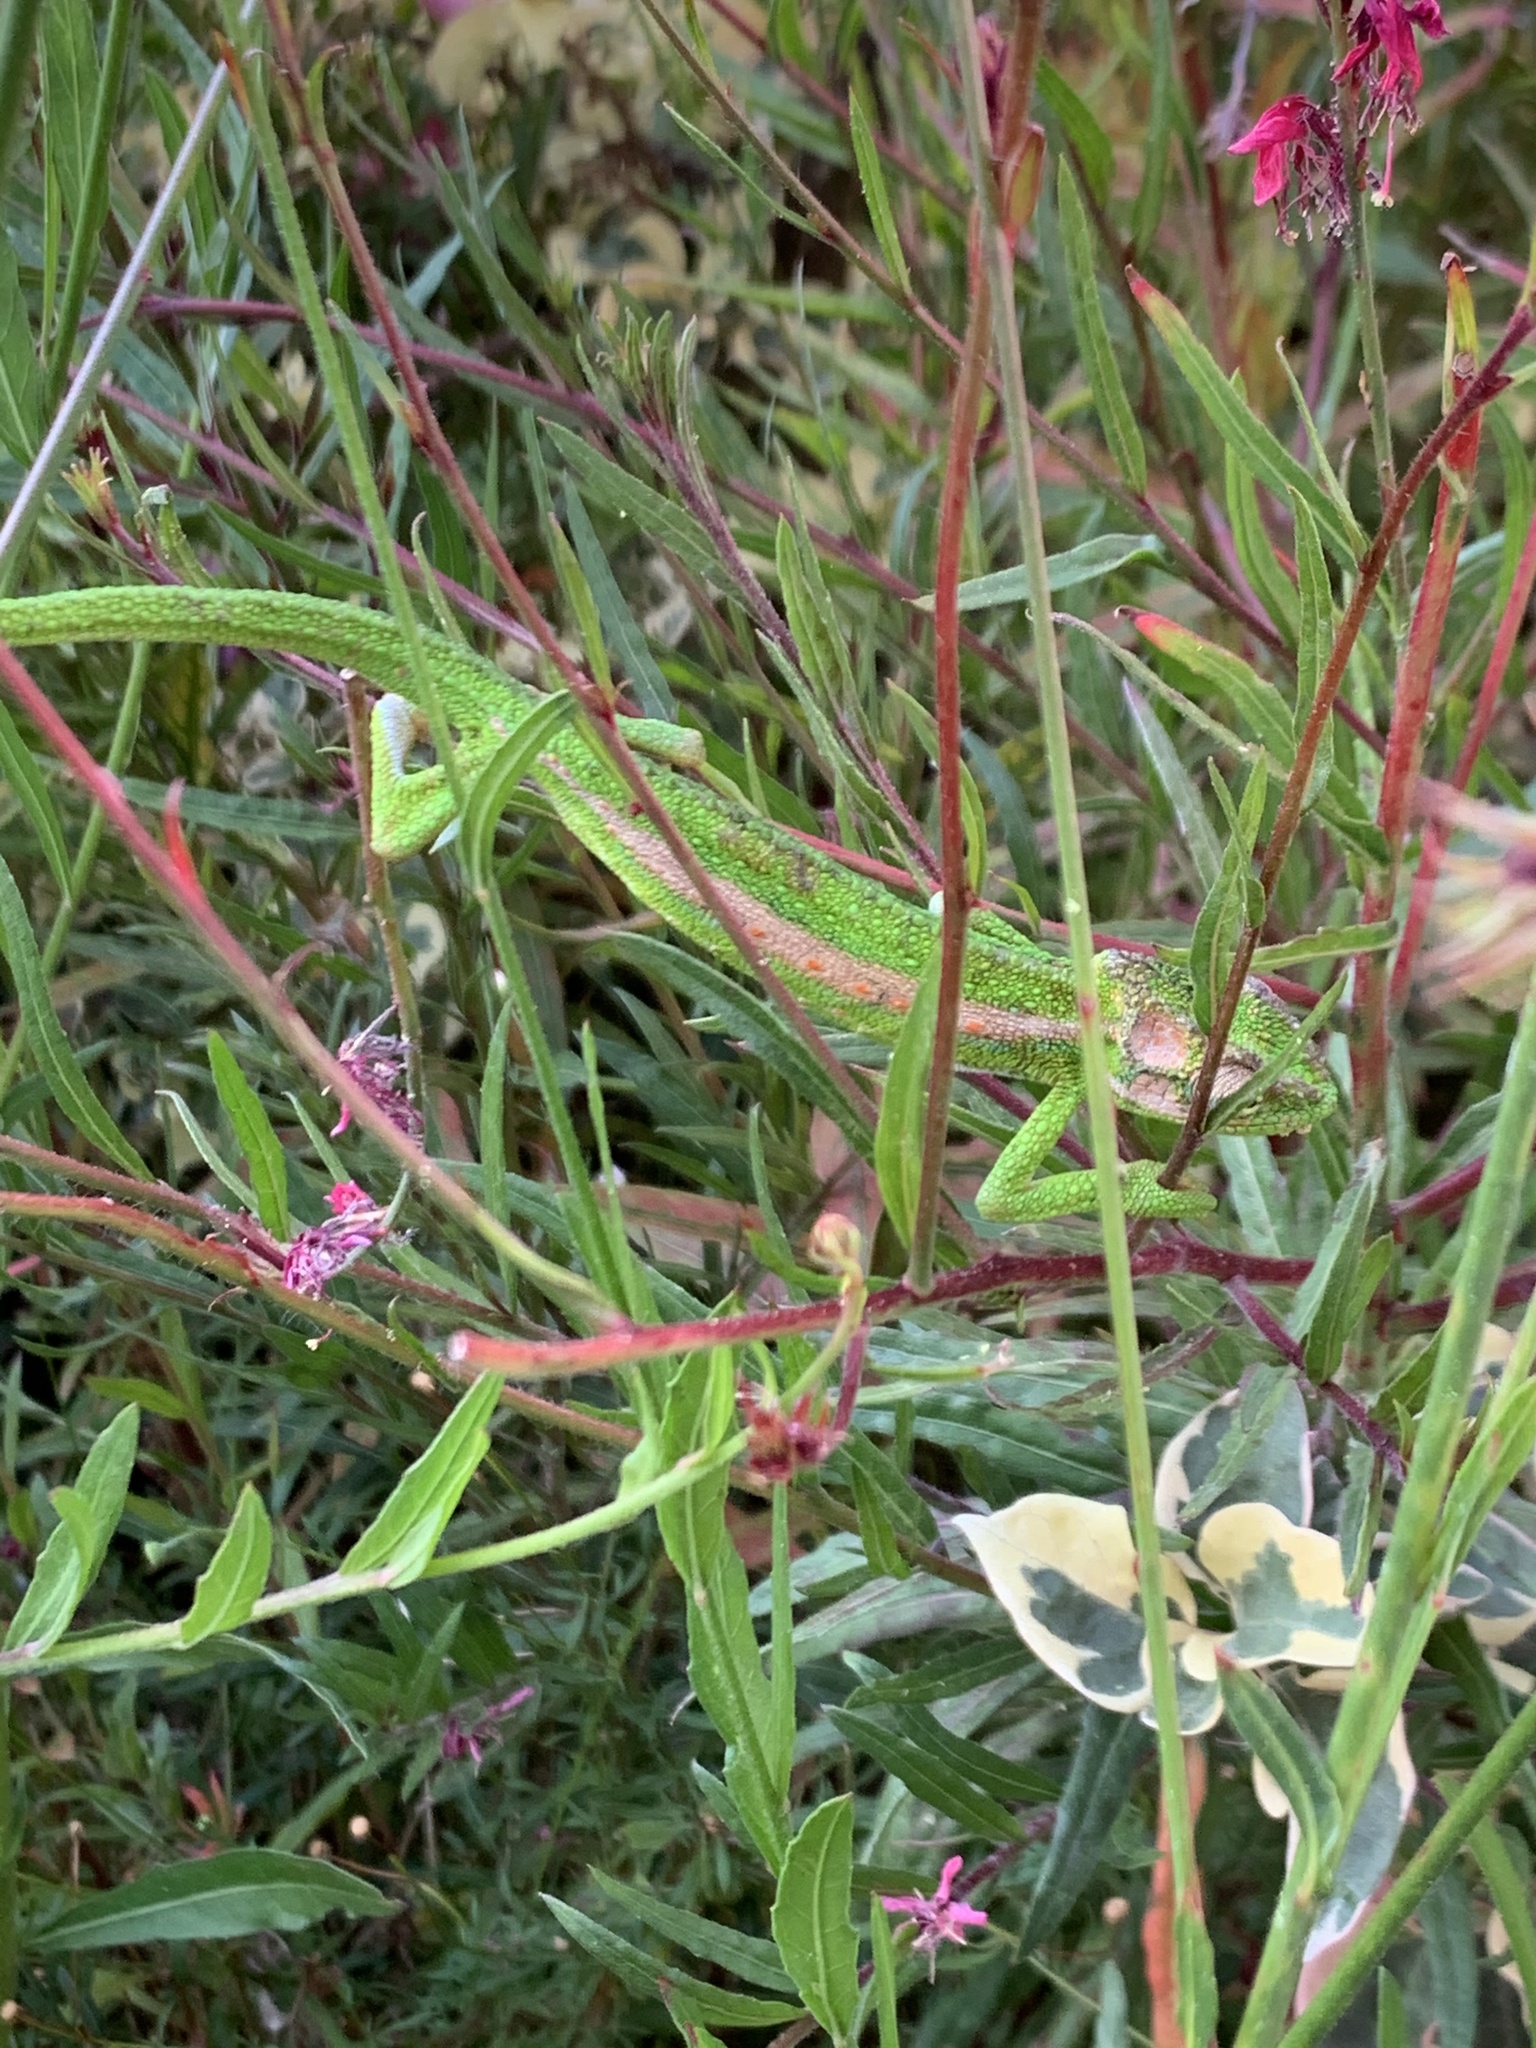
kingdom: Animalia
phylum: Chordata
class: Squamata
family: Chamaeleonidae
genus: Bradypodion
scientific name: Bradypodion pumilum
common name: Cape dwarf chameleon
